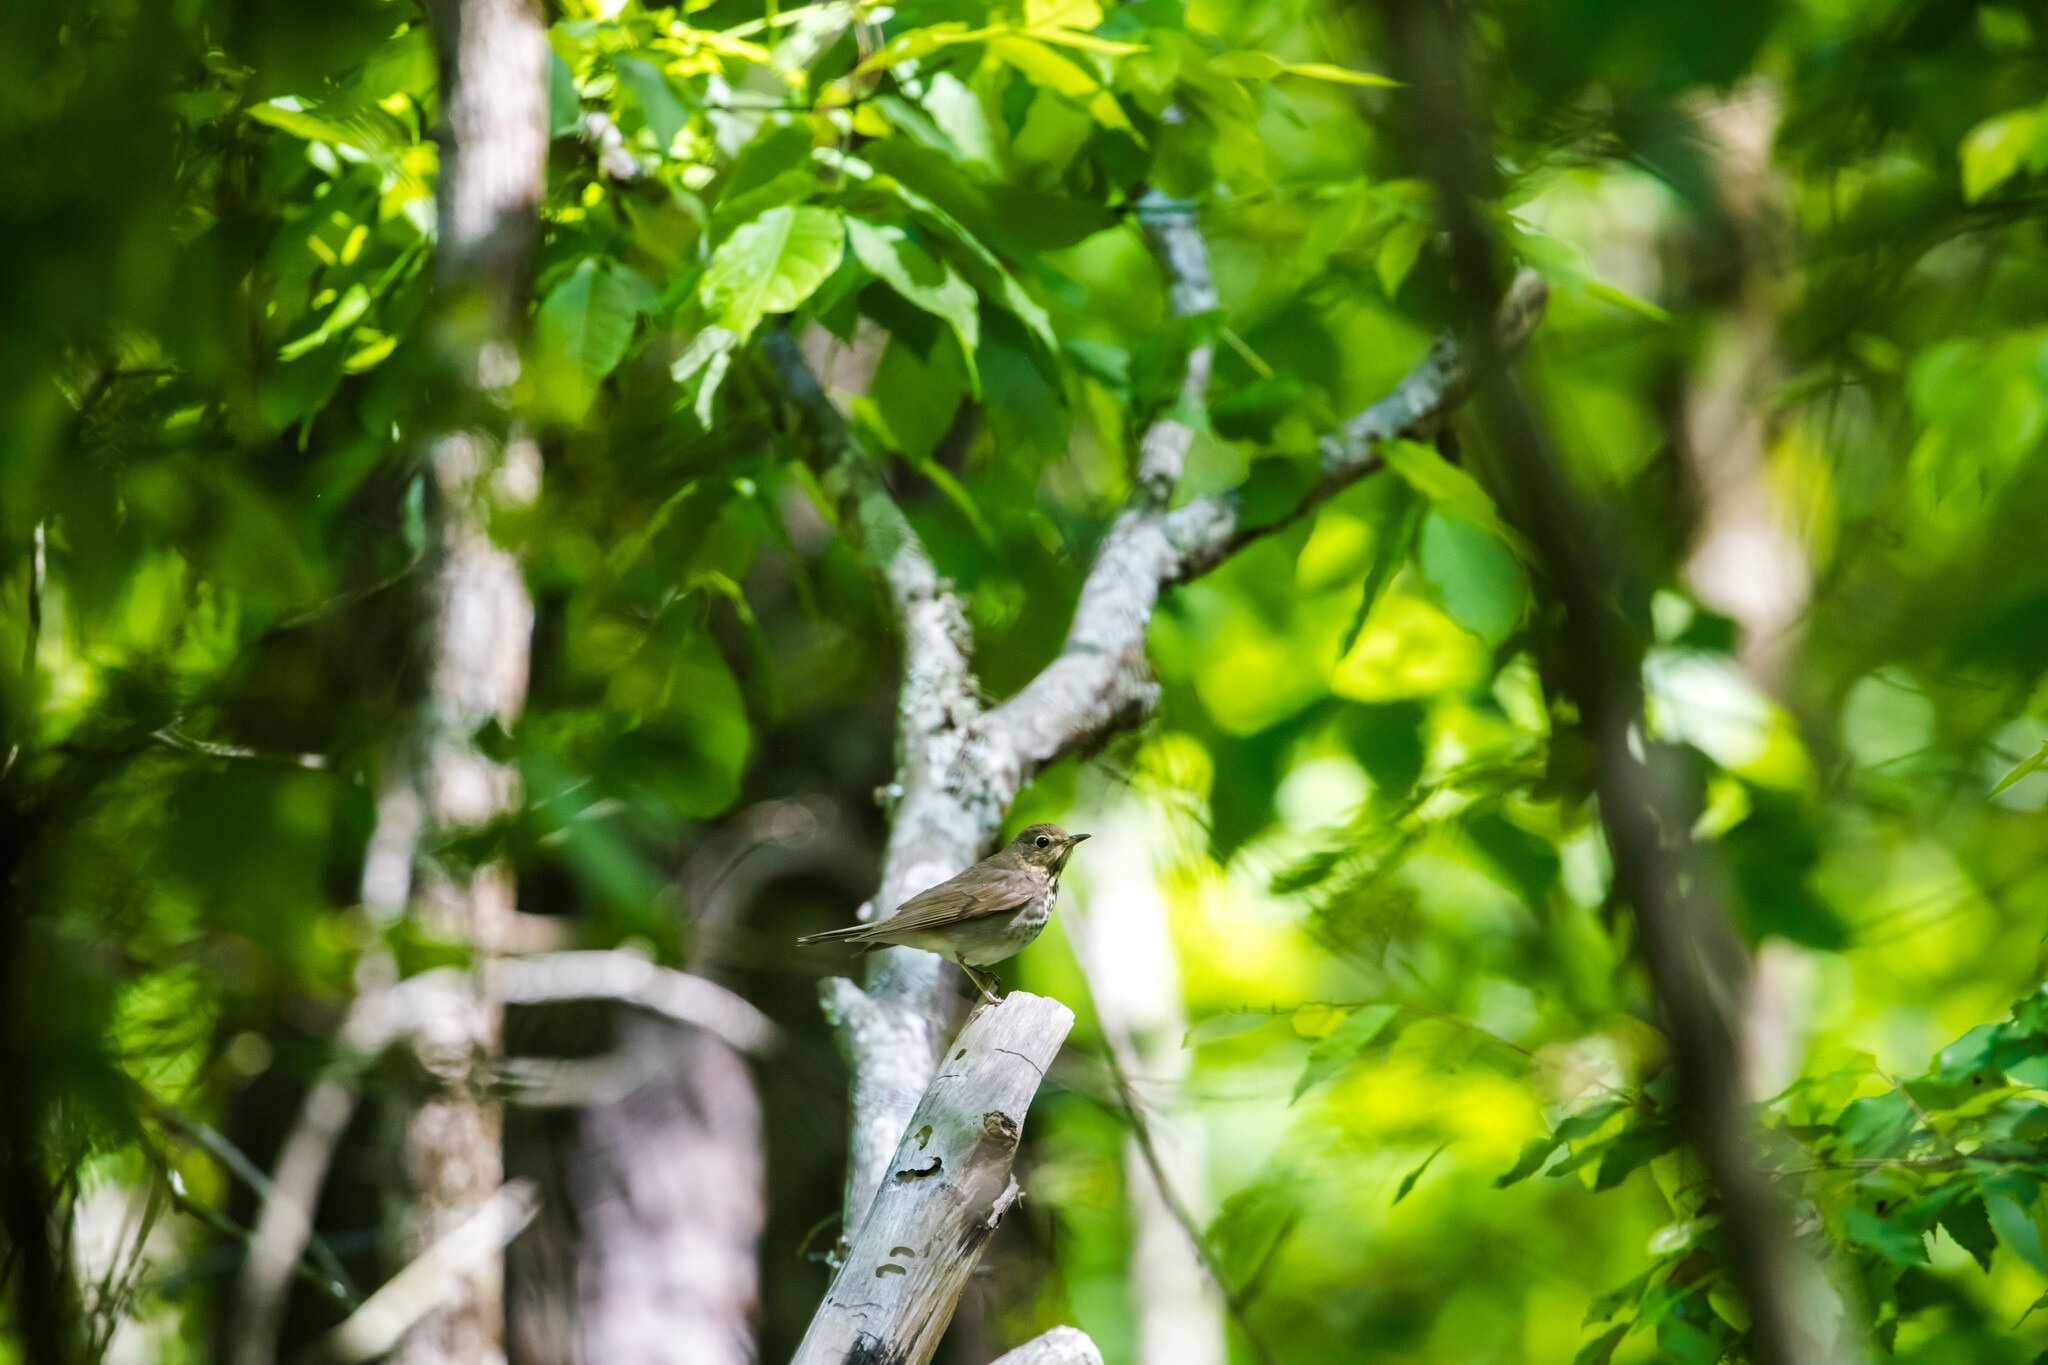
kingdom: Animalia
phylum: Chordata
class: Aves
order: Passeriformes
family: Turdidae
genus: Catharus
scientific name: Catharus ustulatus
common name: Swainson's thrush
